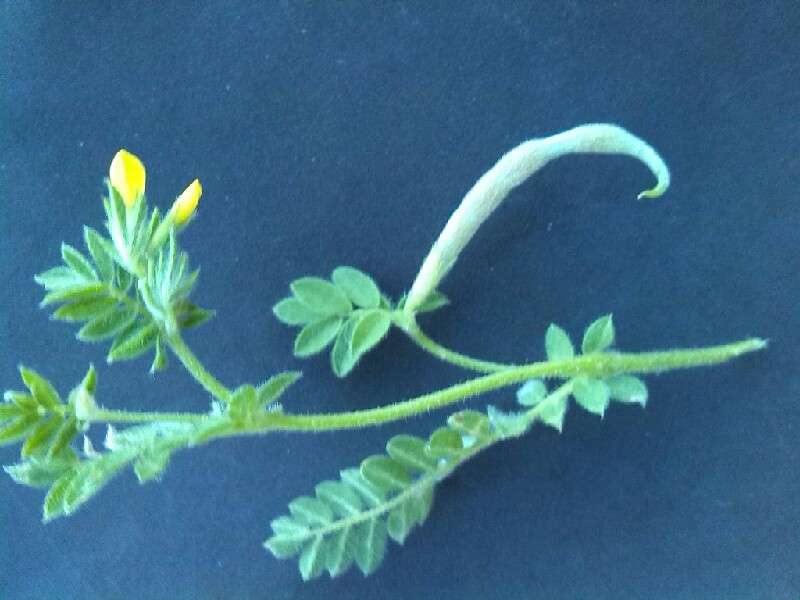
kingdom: Plantae
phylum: Tracheophyta
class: Magnoliopsida
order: Fabales
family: Fabaceae
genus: Ornithopus
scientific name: Ornithopus compressus
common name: Yellow serradella
